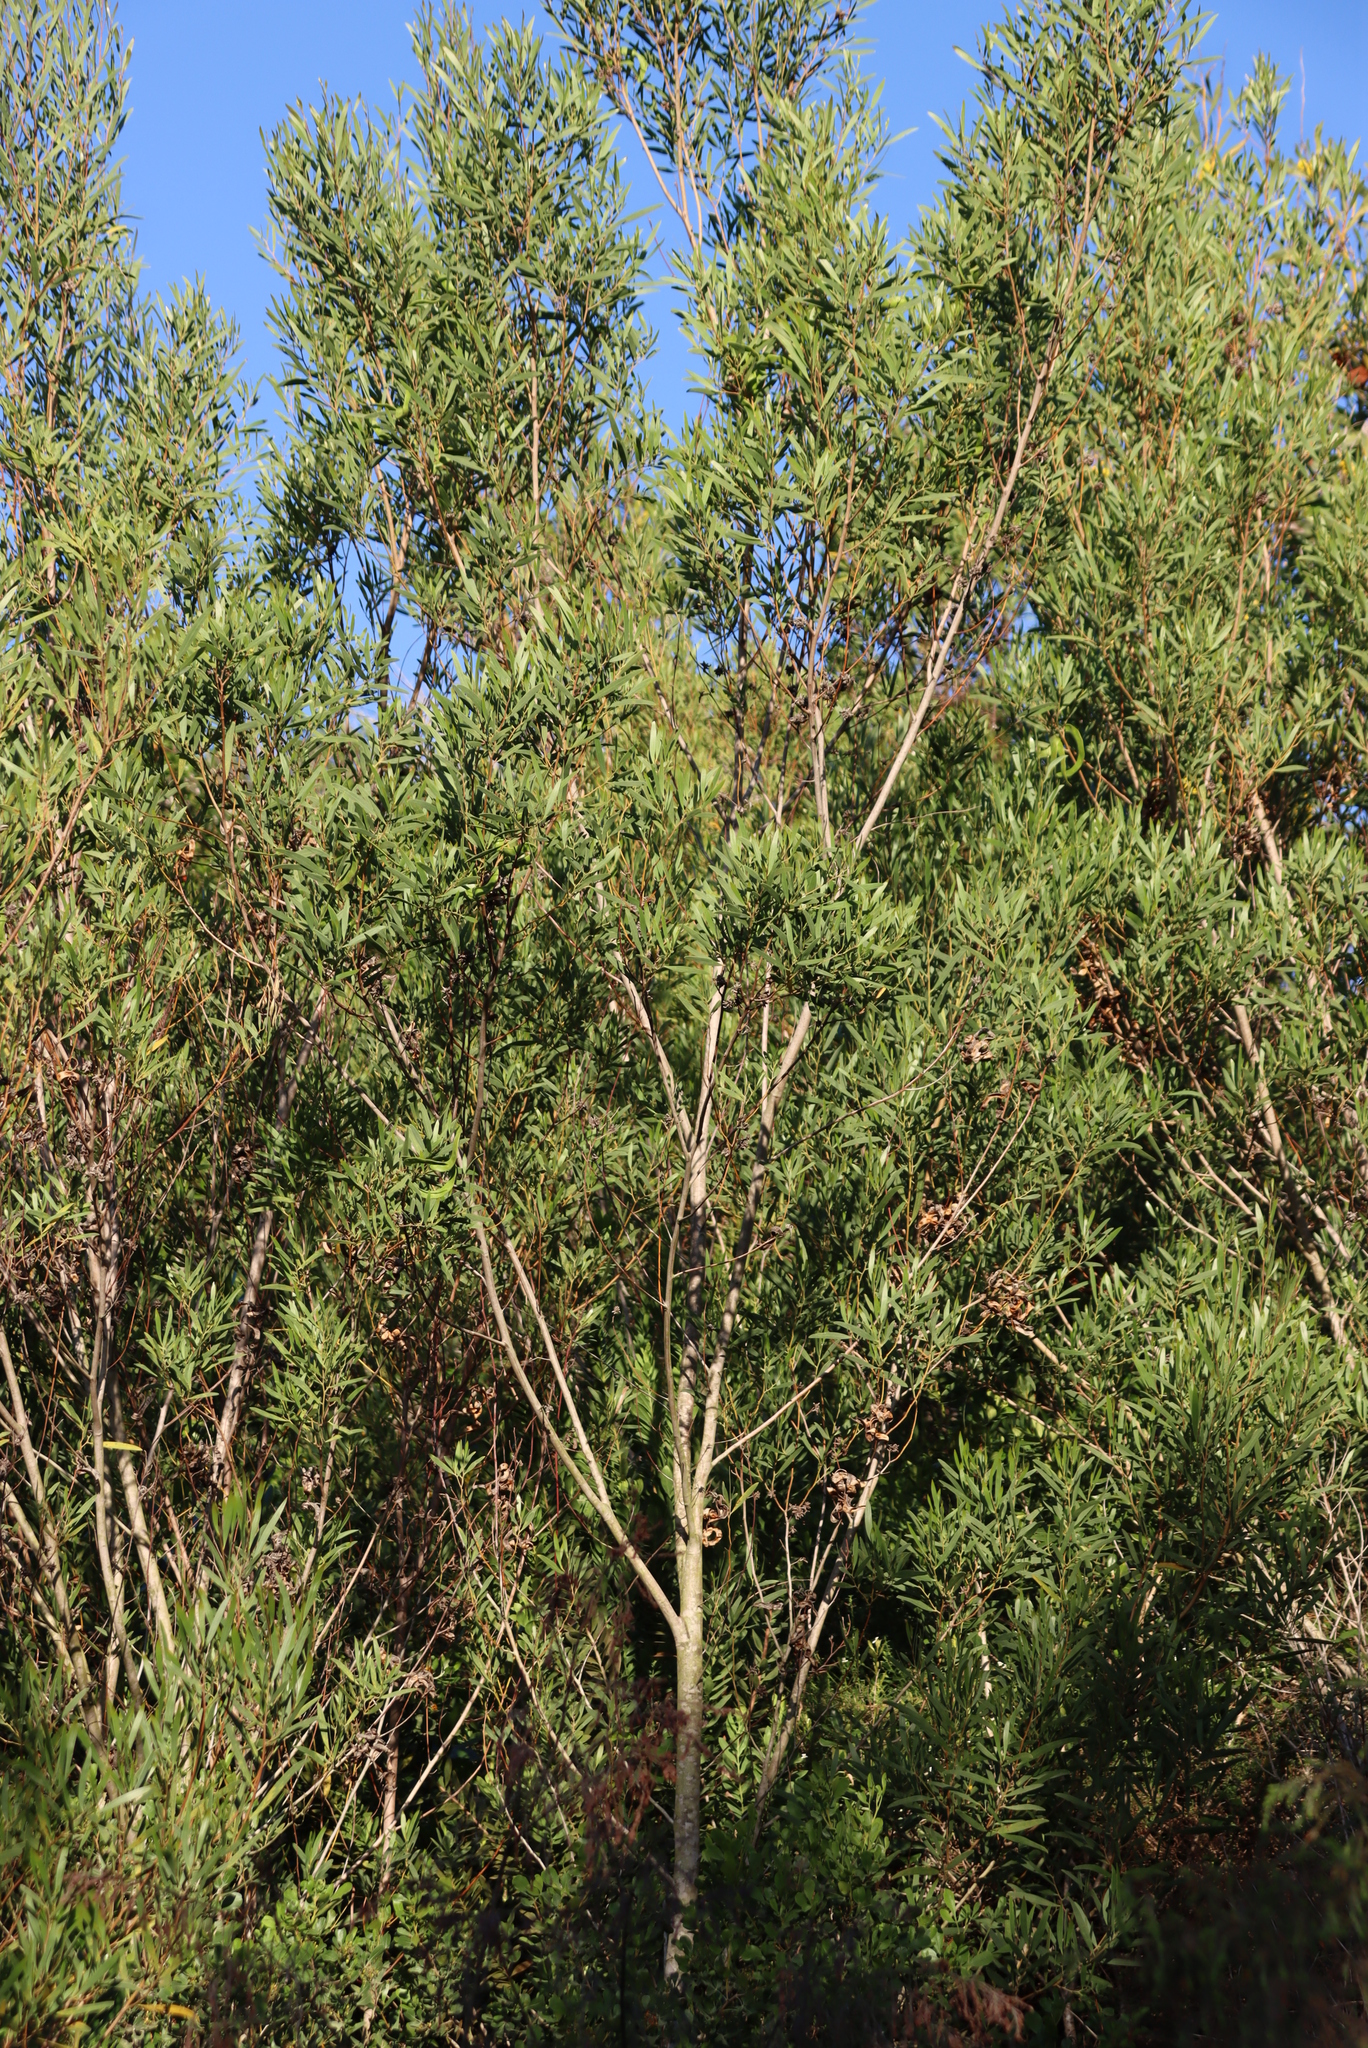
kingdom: Plantae
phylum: Tracheophyta
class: Magnoliopsida
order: Fabales
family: Fabaceae
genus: Acacia
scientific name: Acacia cyclops
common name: Coastal wattle
